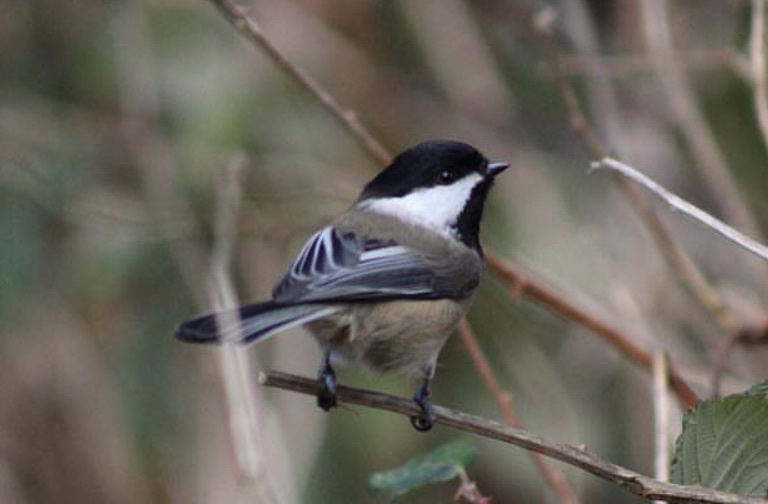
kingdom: Animalia
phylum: Chordata
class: Aves
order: Passeriformes
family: Paridae
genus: Poecile
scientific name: Poecile atricapillus
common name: Black-capped chickadee
